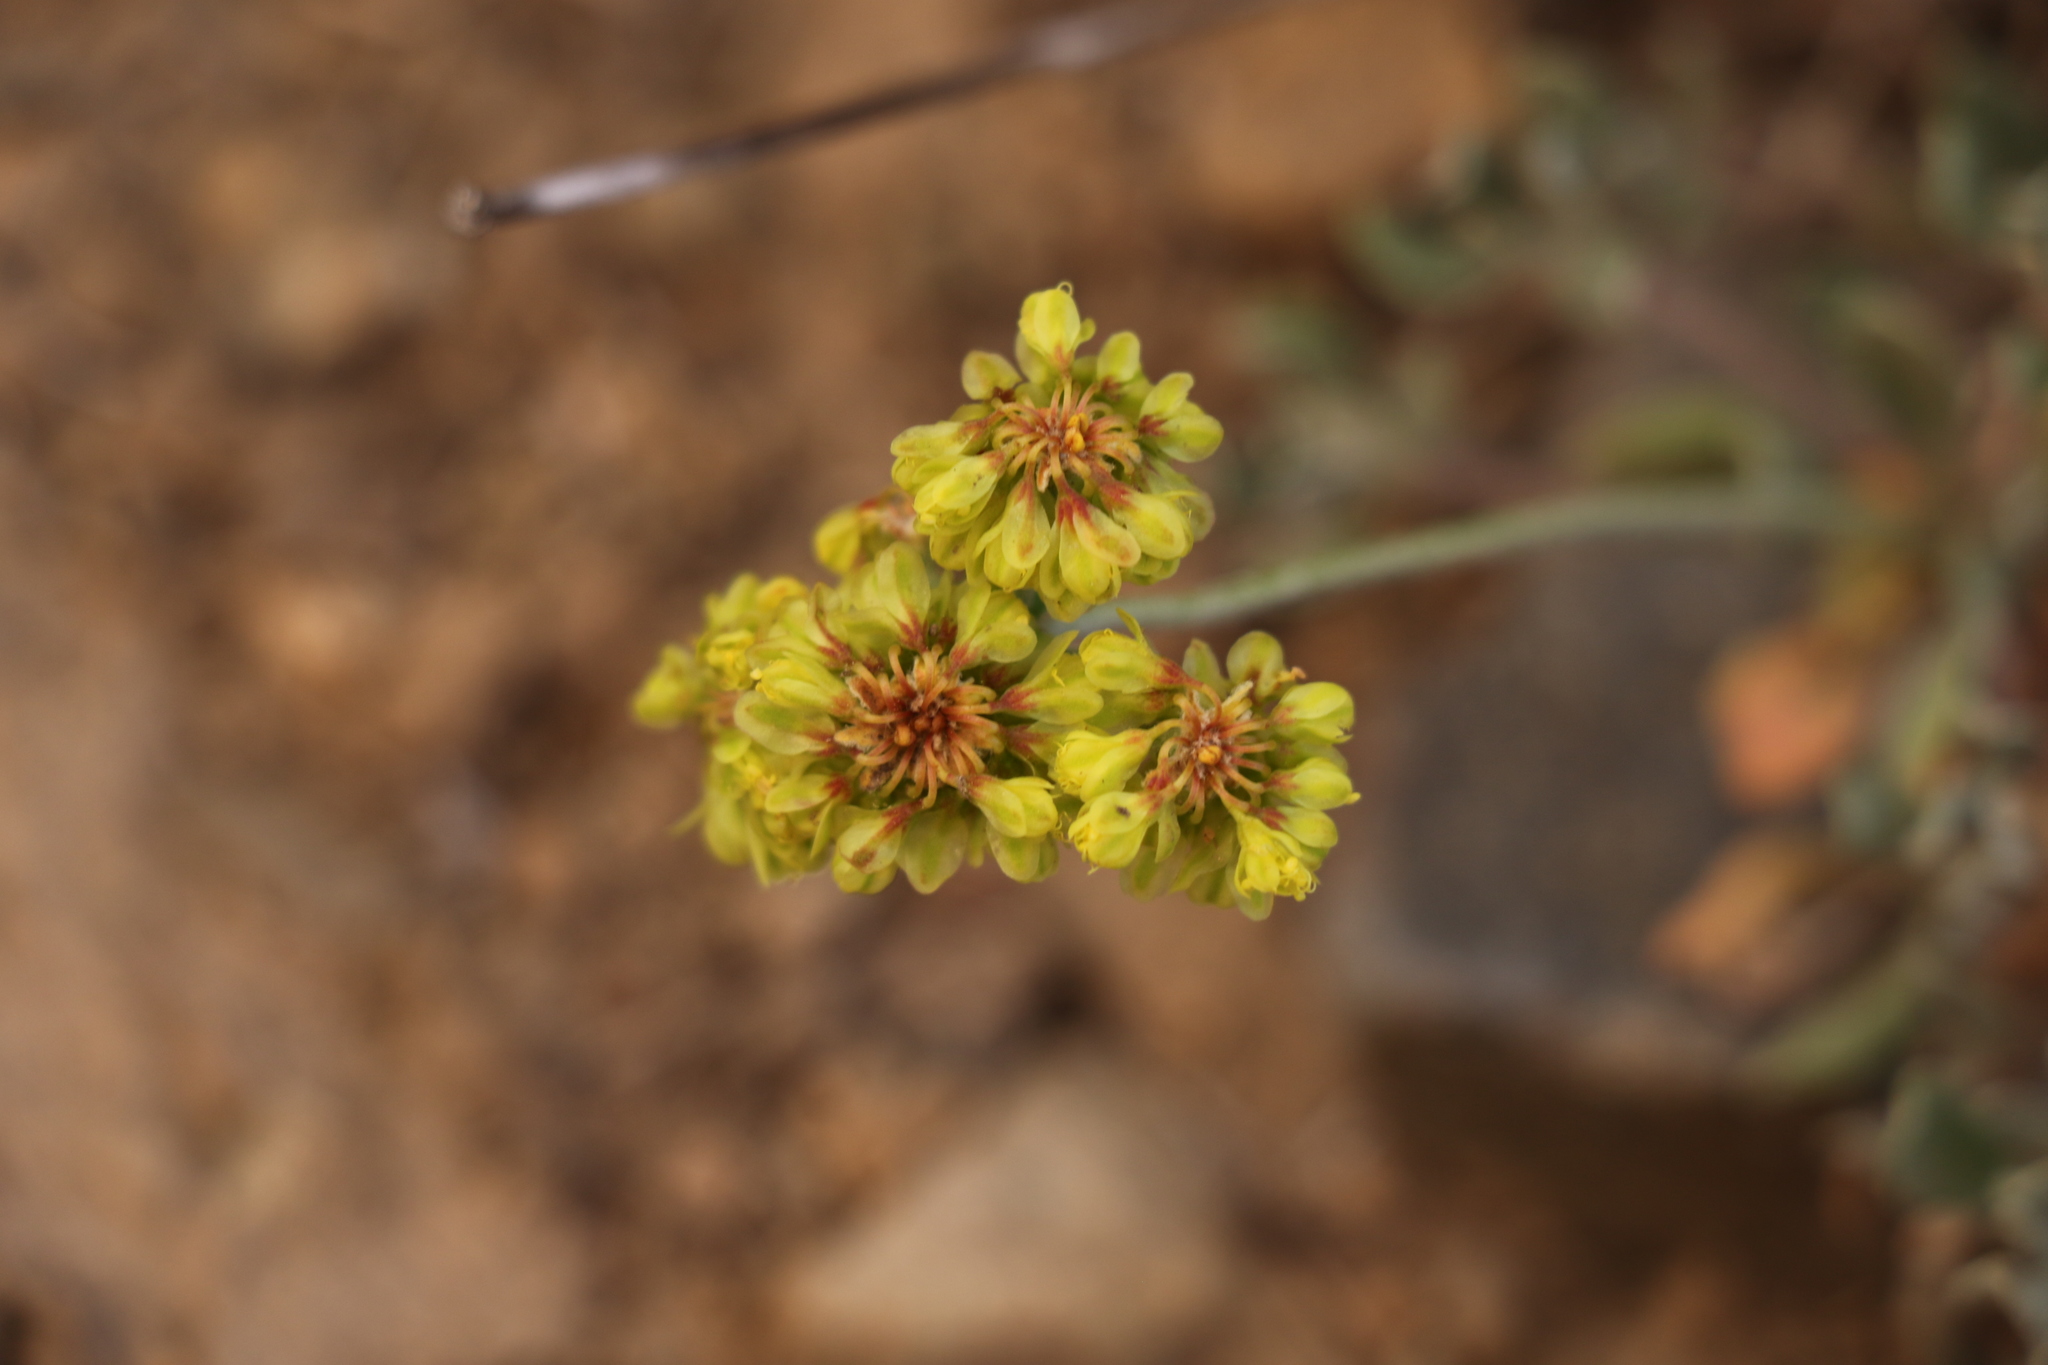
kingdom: Plantae
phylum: Tracheophyta
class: Magnoliopsida
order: Caryophyllales
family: Polygonaceae
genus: Eriogonum
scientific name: Eriogonum umbellatum
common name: Sulfur-buckwheat
